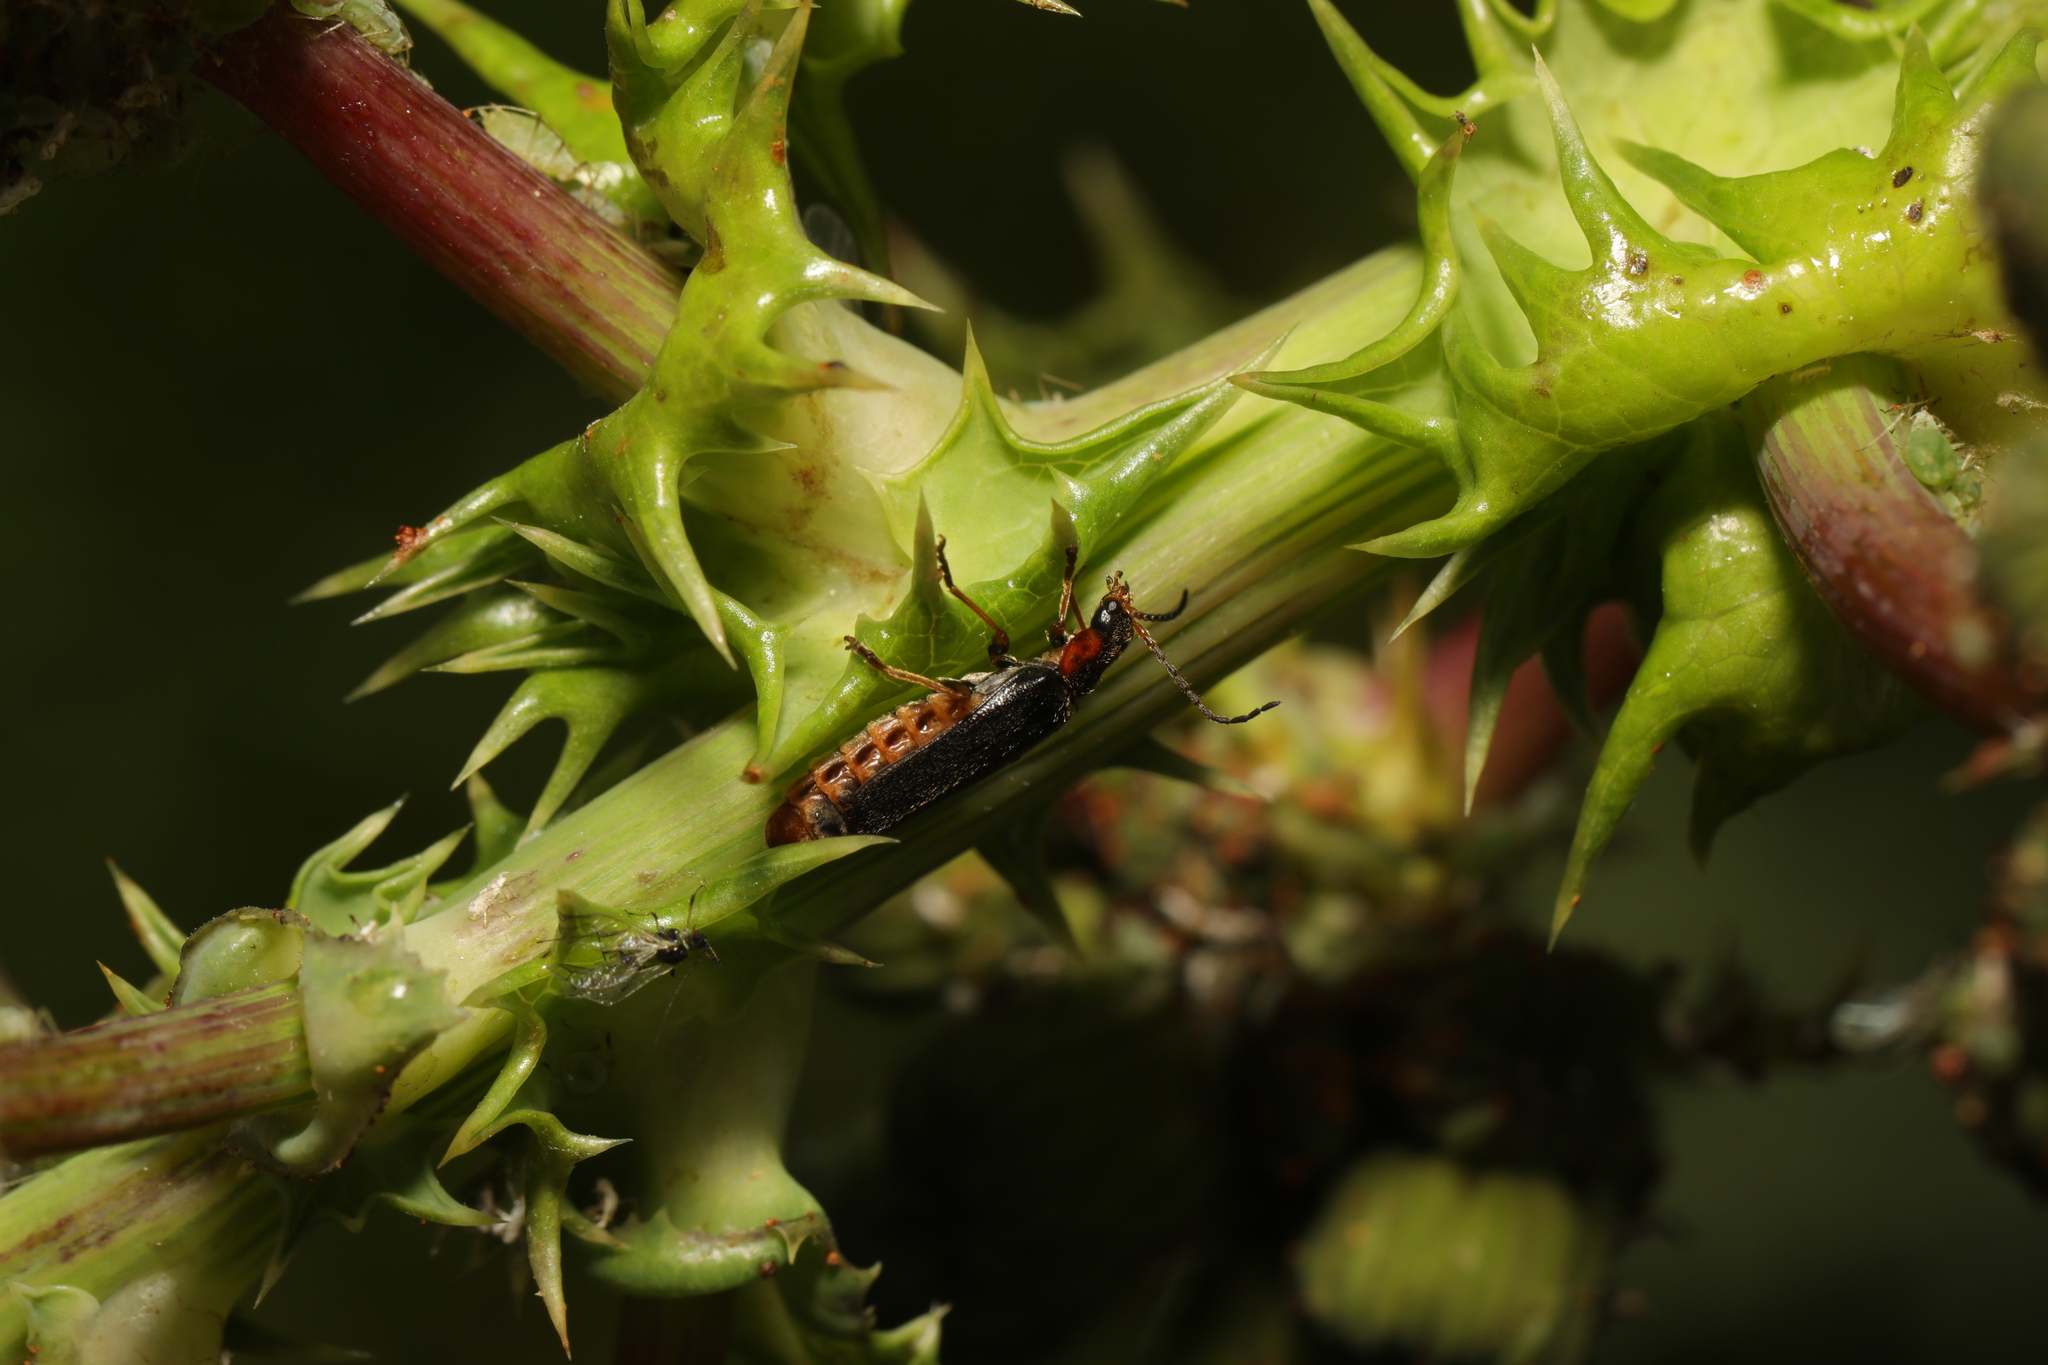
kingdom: Animalia
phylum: Arthropoda
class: Insecta
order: Coleoptera
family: Cantharidae
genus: Cantharis
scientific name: Cantharis flavilabris
